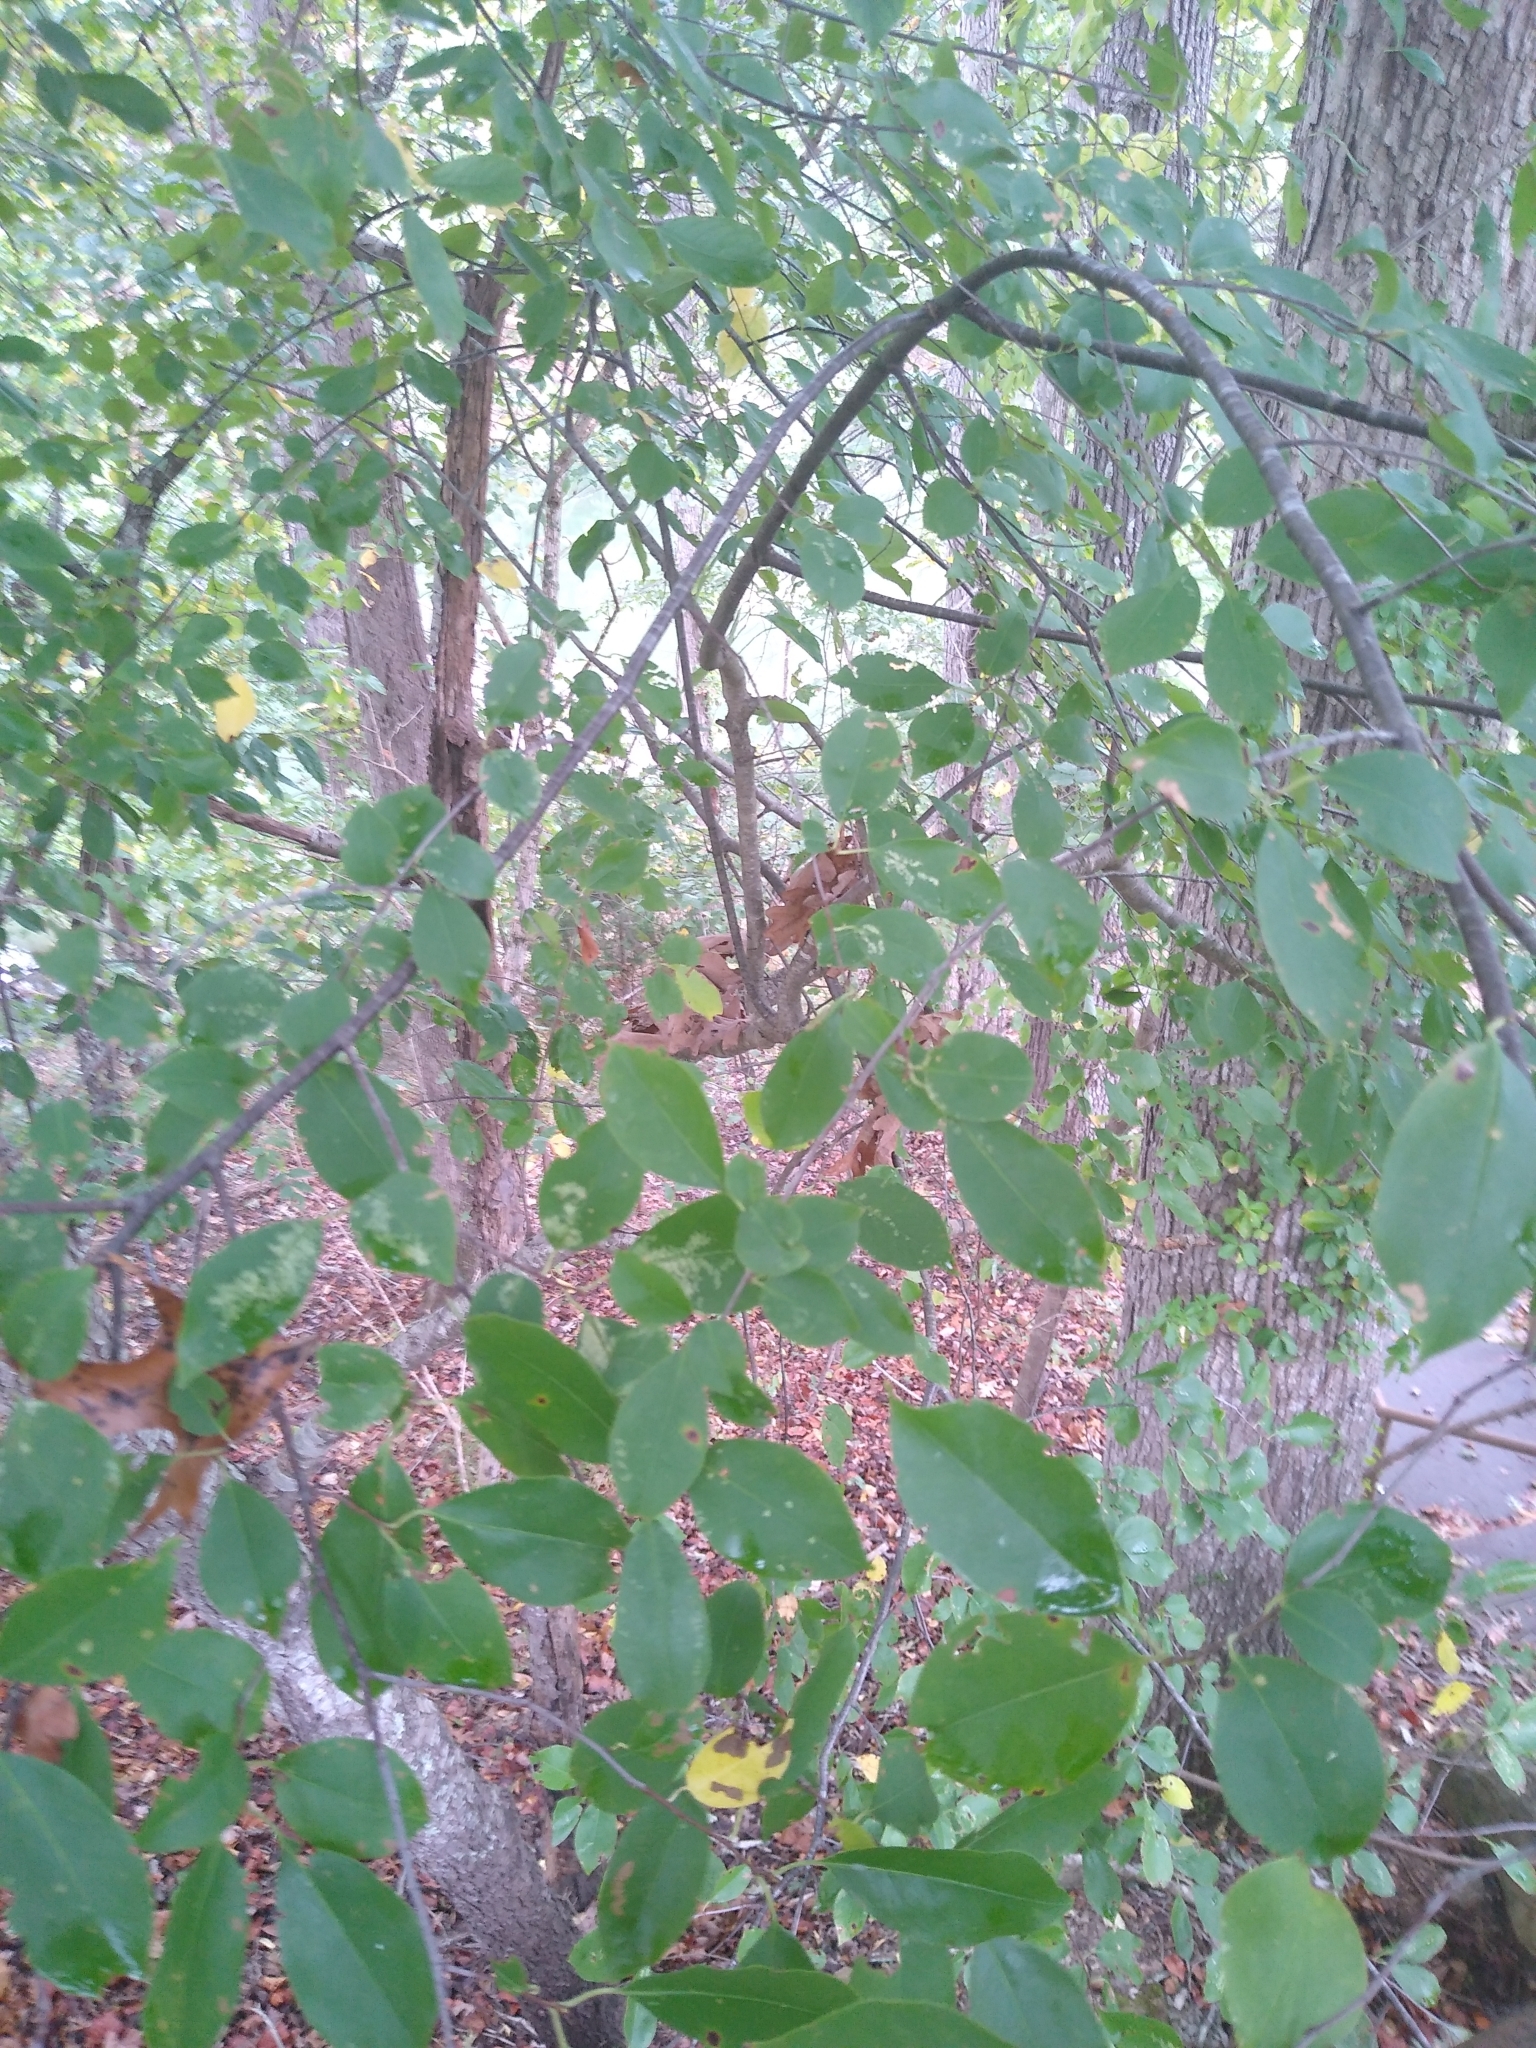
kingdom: Plantae
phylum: Tracheophyta
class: Magnoliopsida
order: Rosales
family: Rosaceae
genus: Prunus
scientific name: Prunus serotina
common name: Black cherry
